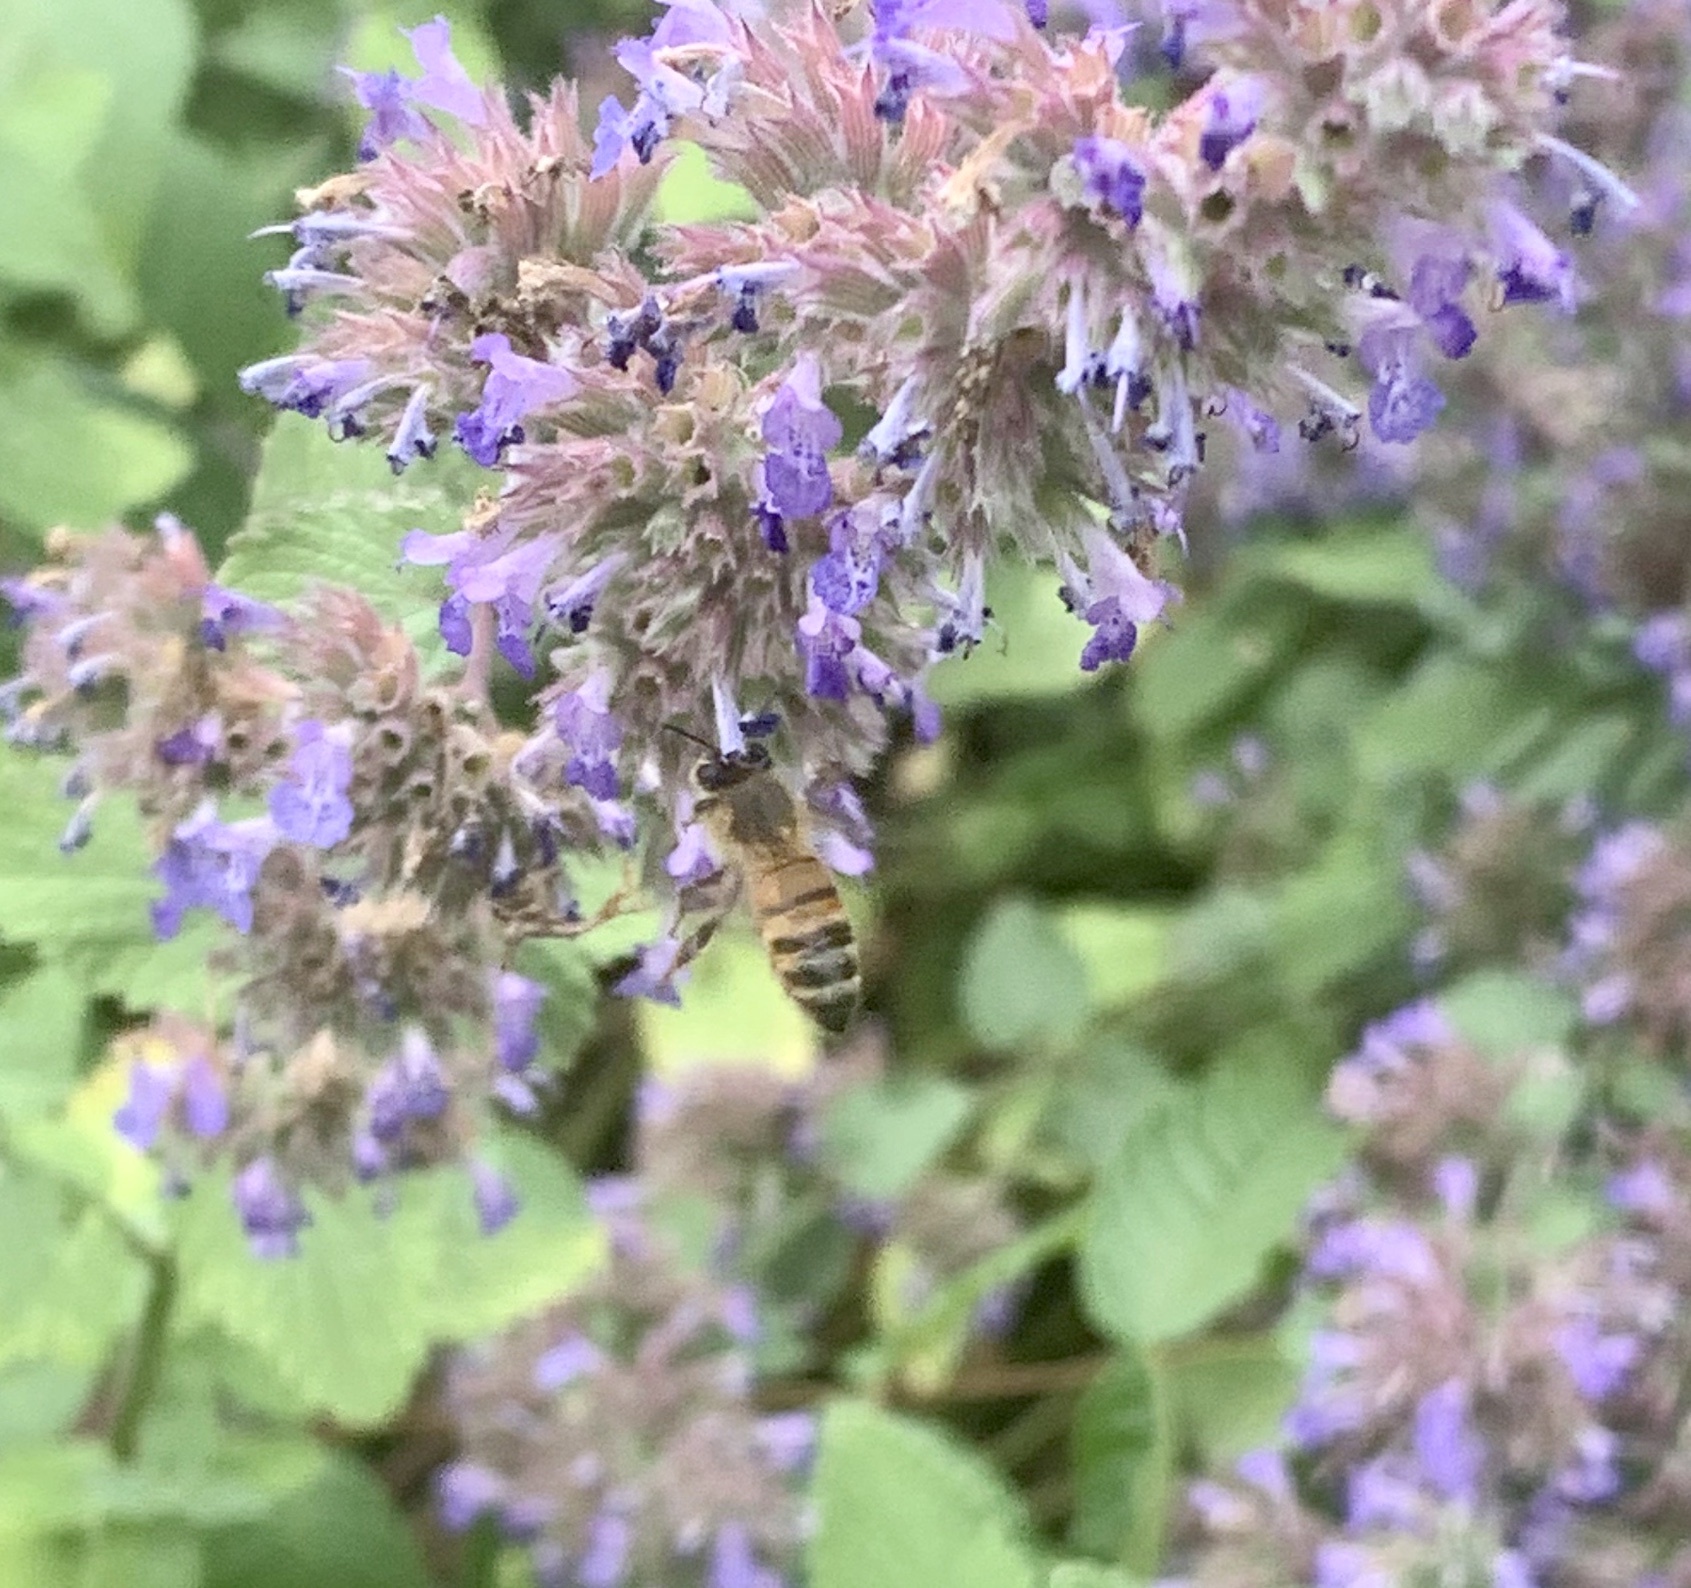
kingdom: Animalia
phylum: Arthropoda
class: Insecta
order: Hymenoptera
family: Apidae
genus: Apis
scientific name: Apis mellifera
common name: Honey bee
